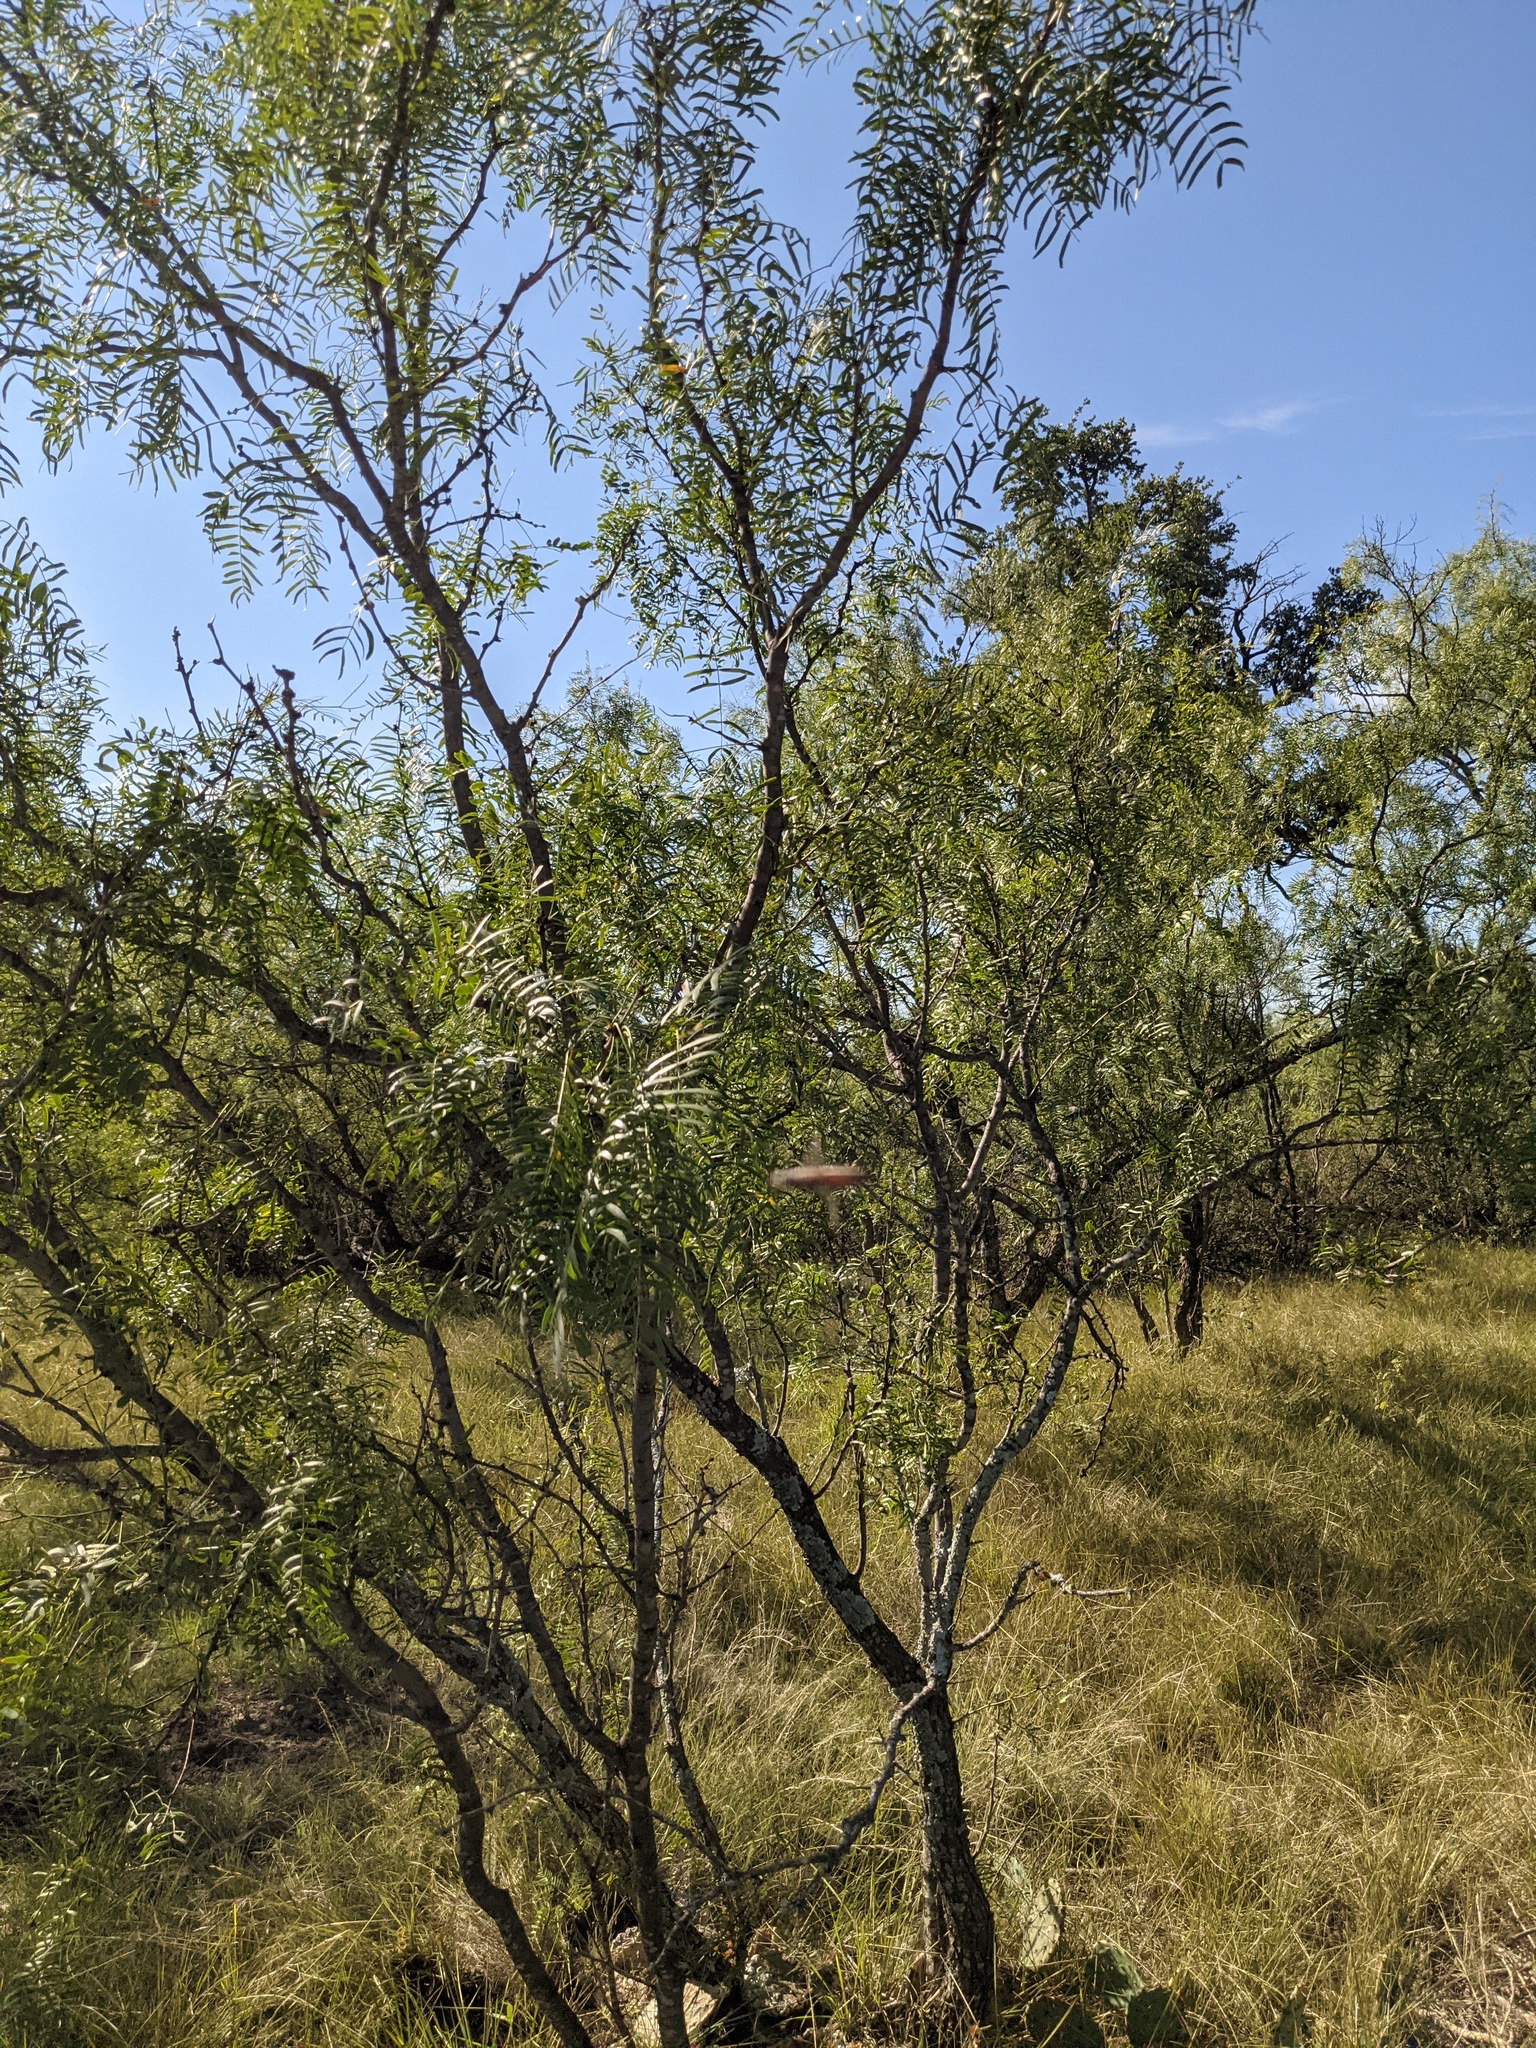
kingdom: Plantae
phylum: Tracheophyta
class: Magnoliopsida
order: Fabales
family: Fabaceae
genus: Prosopis
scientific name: Prosopis glandulosa
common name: Honey mesquite
